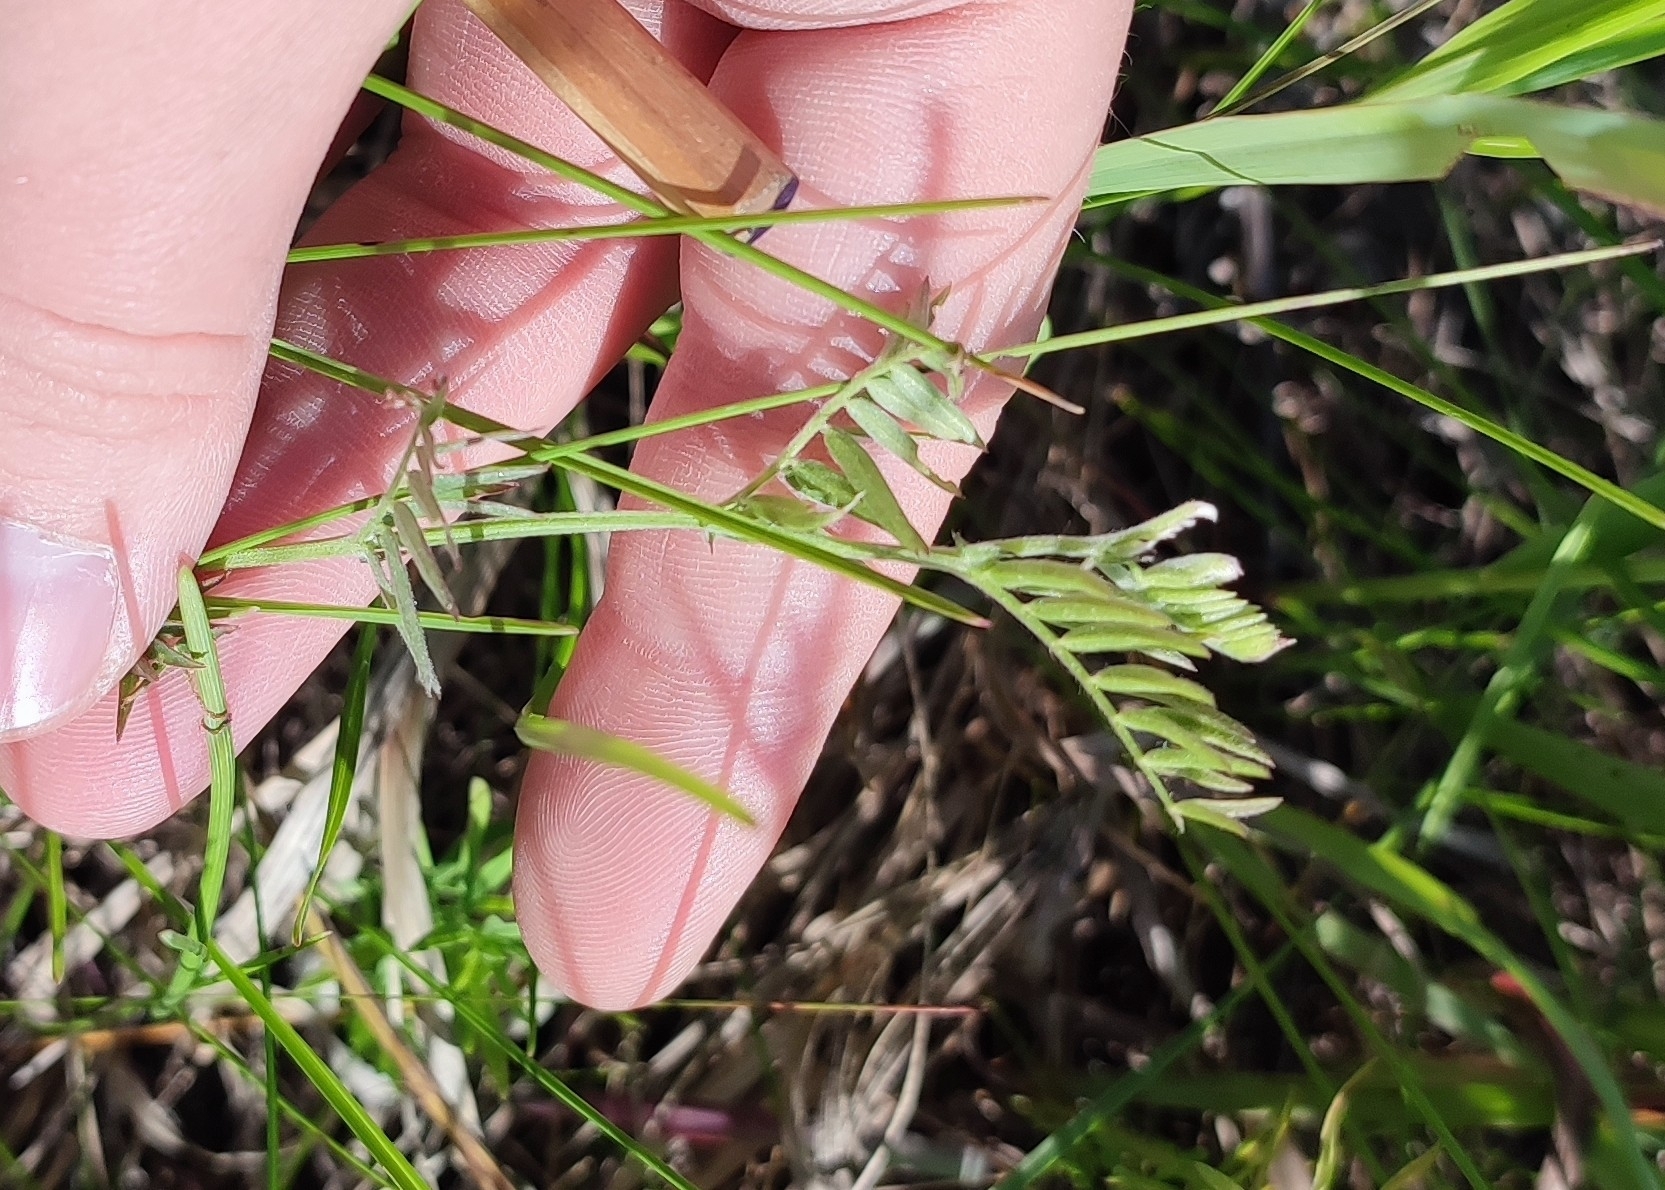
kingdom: Plantae
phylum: Tracheophyta
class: Magnoliopsida
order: Fabales
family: Fabaceae
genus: Vicia
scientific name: Vicia cracca
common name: Bird vetch
